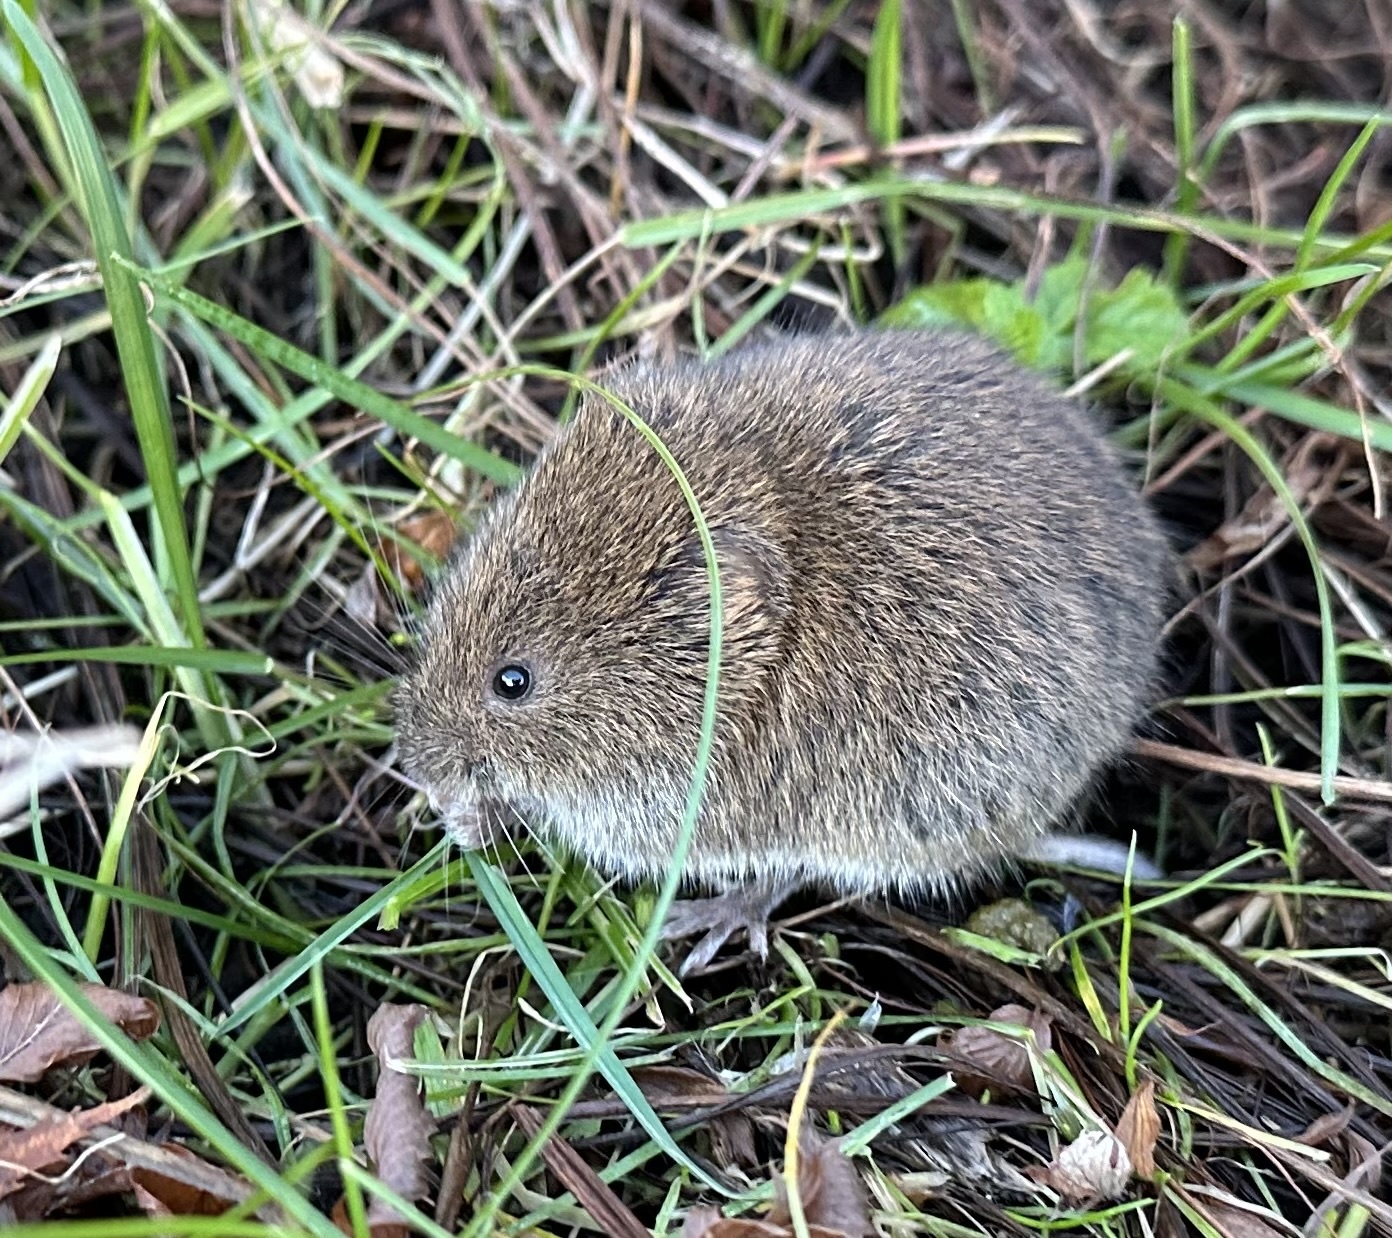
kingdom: Animalia
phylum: Chordata
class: Mammalia
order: Rodentia
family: Cricetidae
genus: Microtus
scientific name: Microtus agrestis
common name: Field vole
